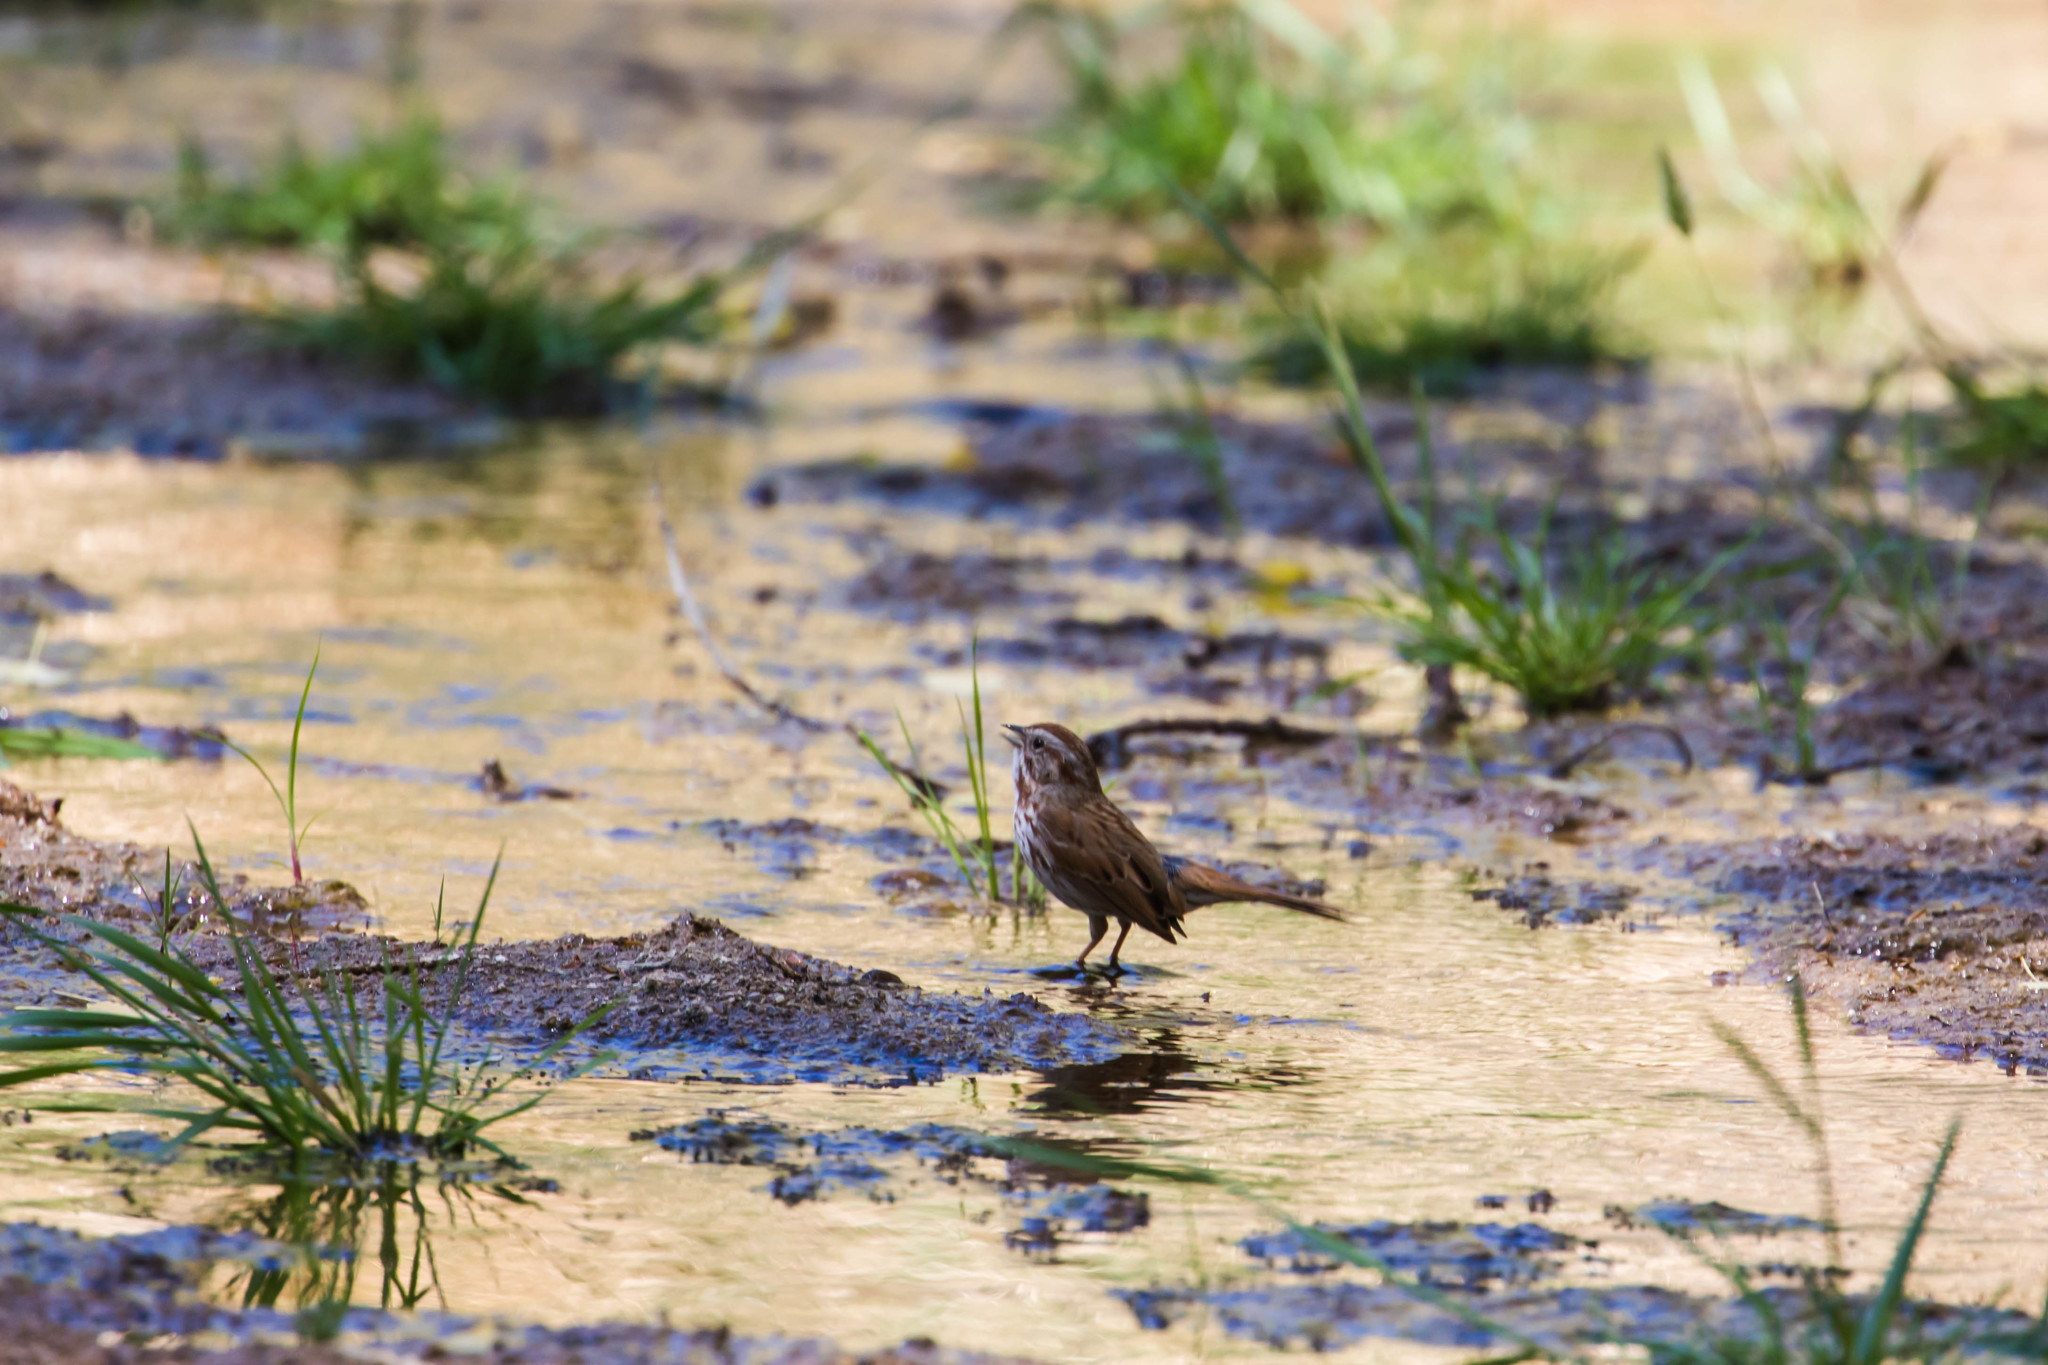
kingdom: Animalia
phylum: Chordata
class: Aves
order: Passeriformes
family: Passerellidae
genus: Melospiza
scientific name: Melospiza melodia
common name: Song sparrow
